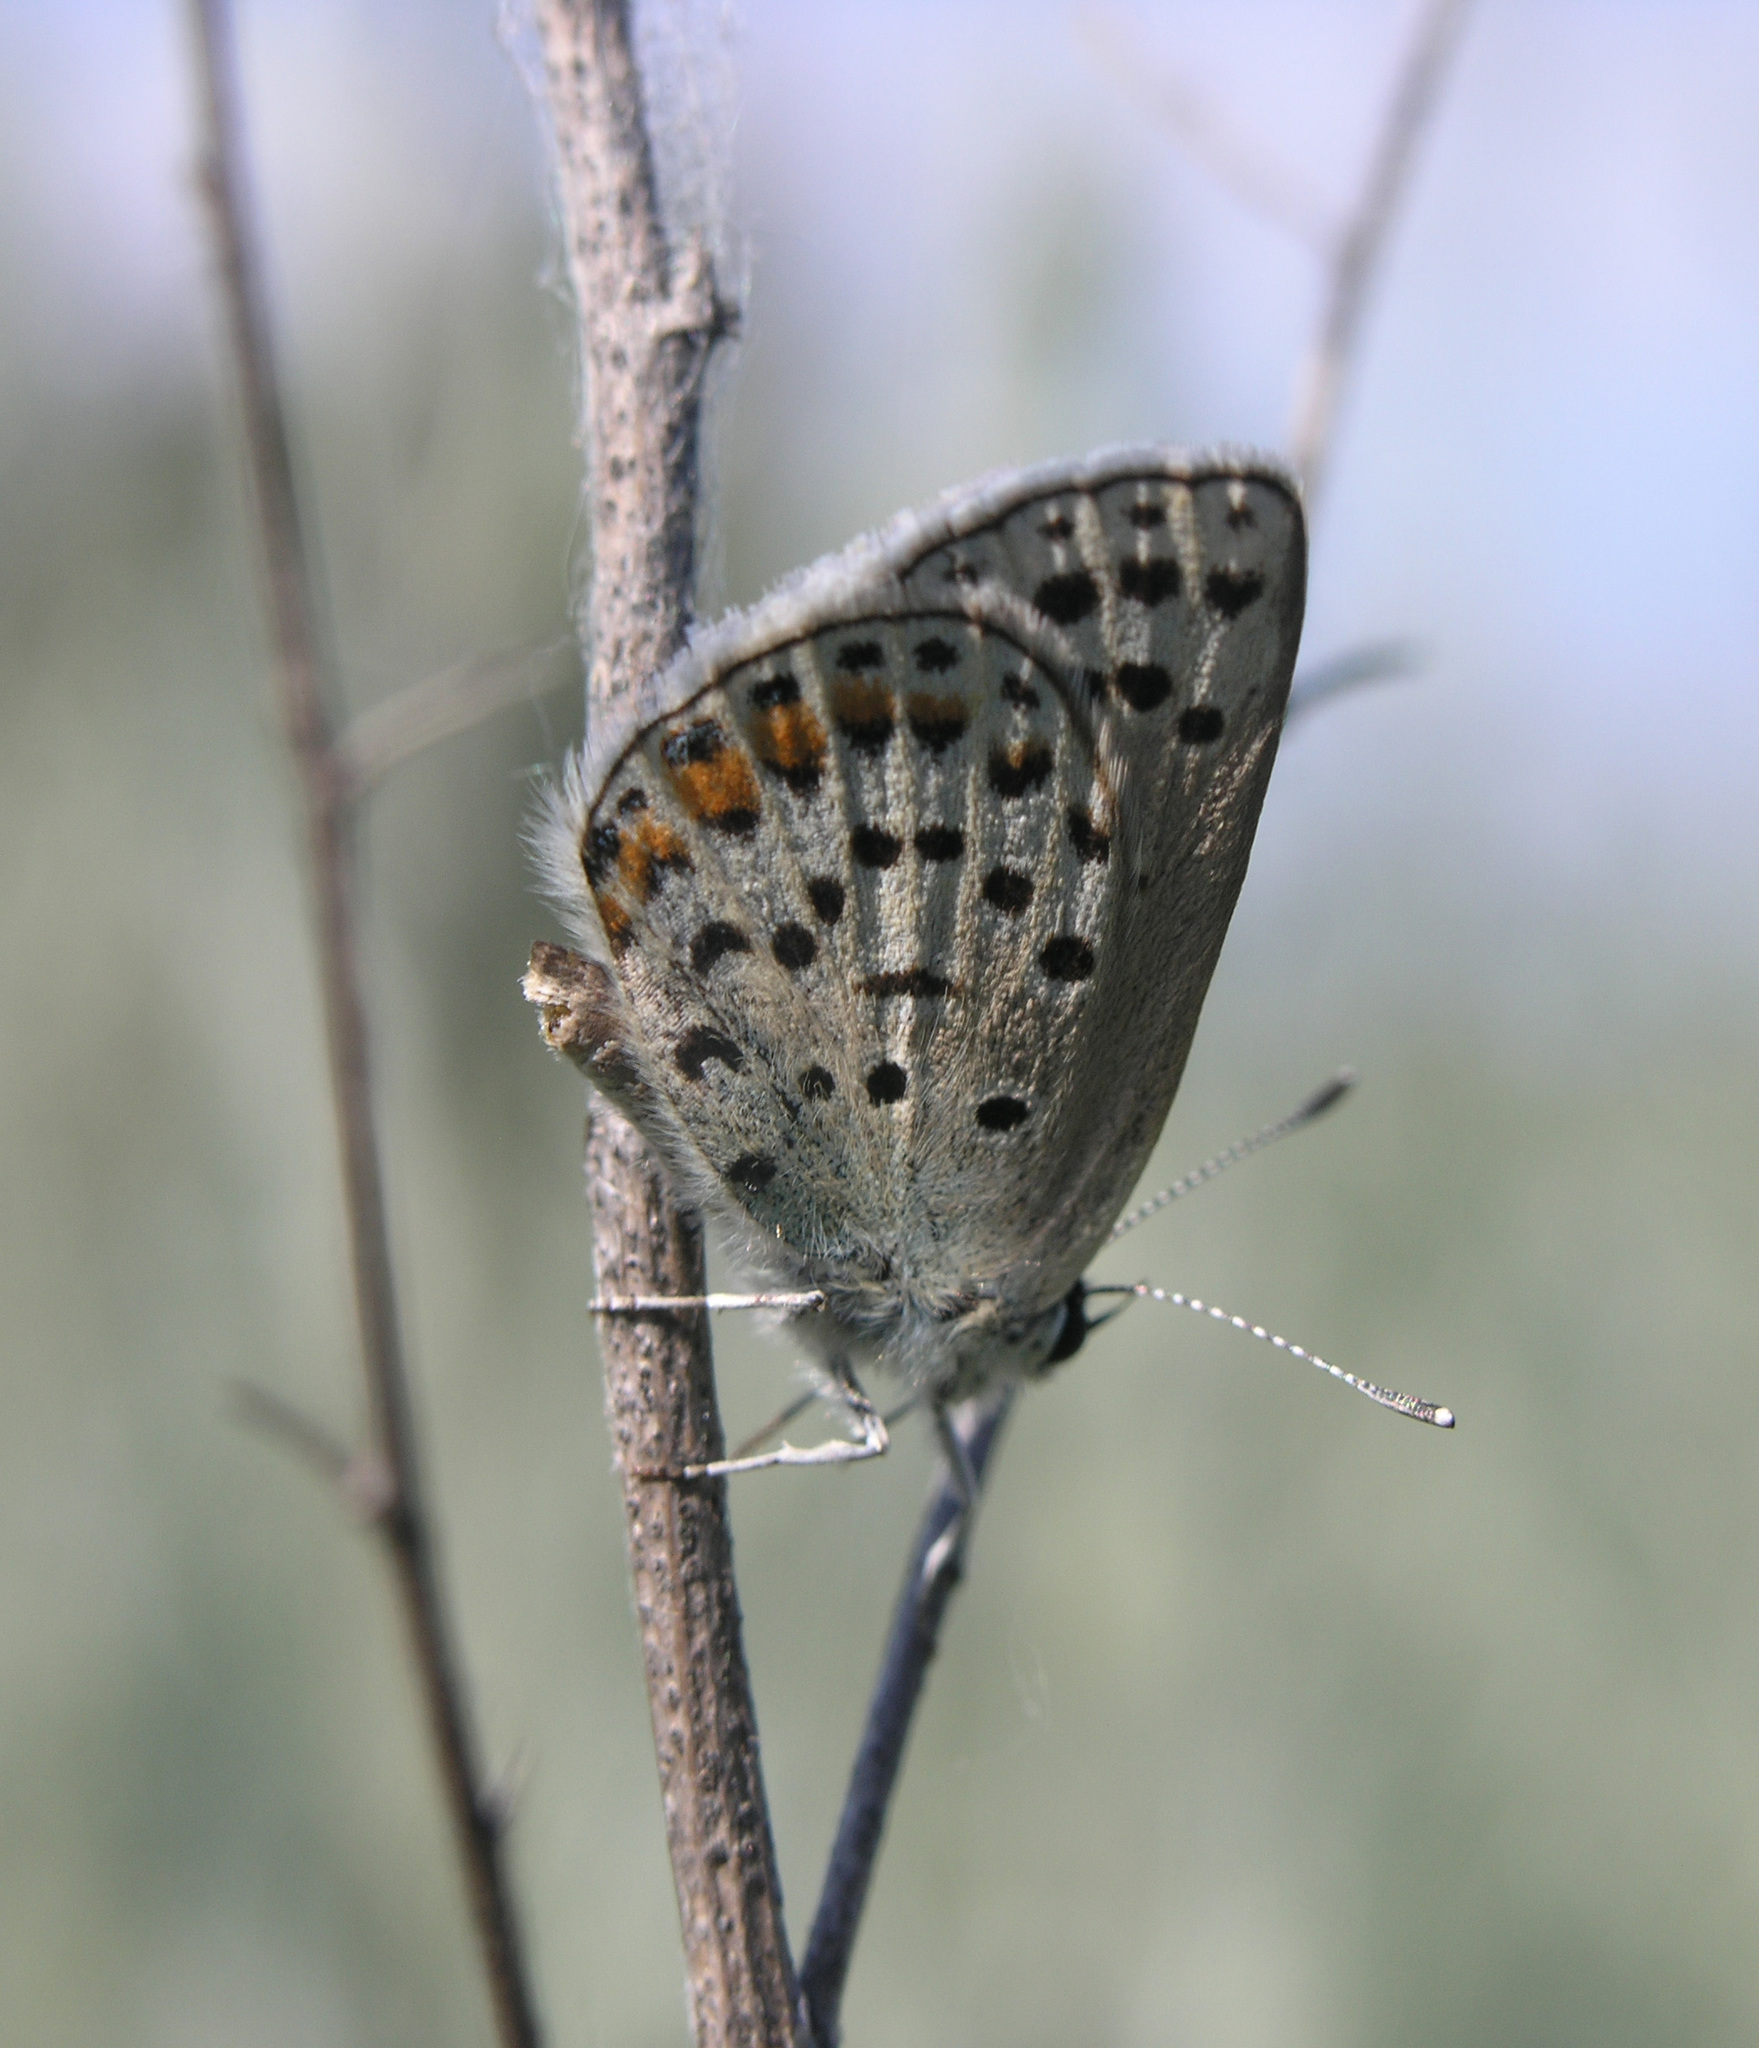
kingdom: Animalia
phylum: Arthropoda
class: Insecta
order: Lepidoptera
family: Lycaenidae
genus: Glabroculus
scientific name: Glabroculus cyane
